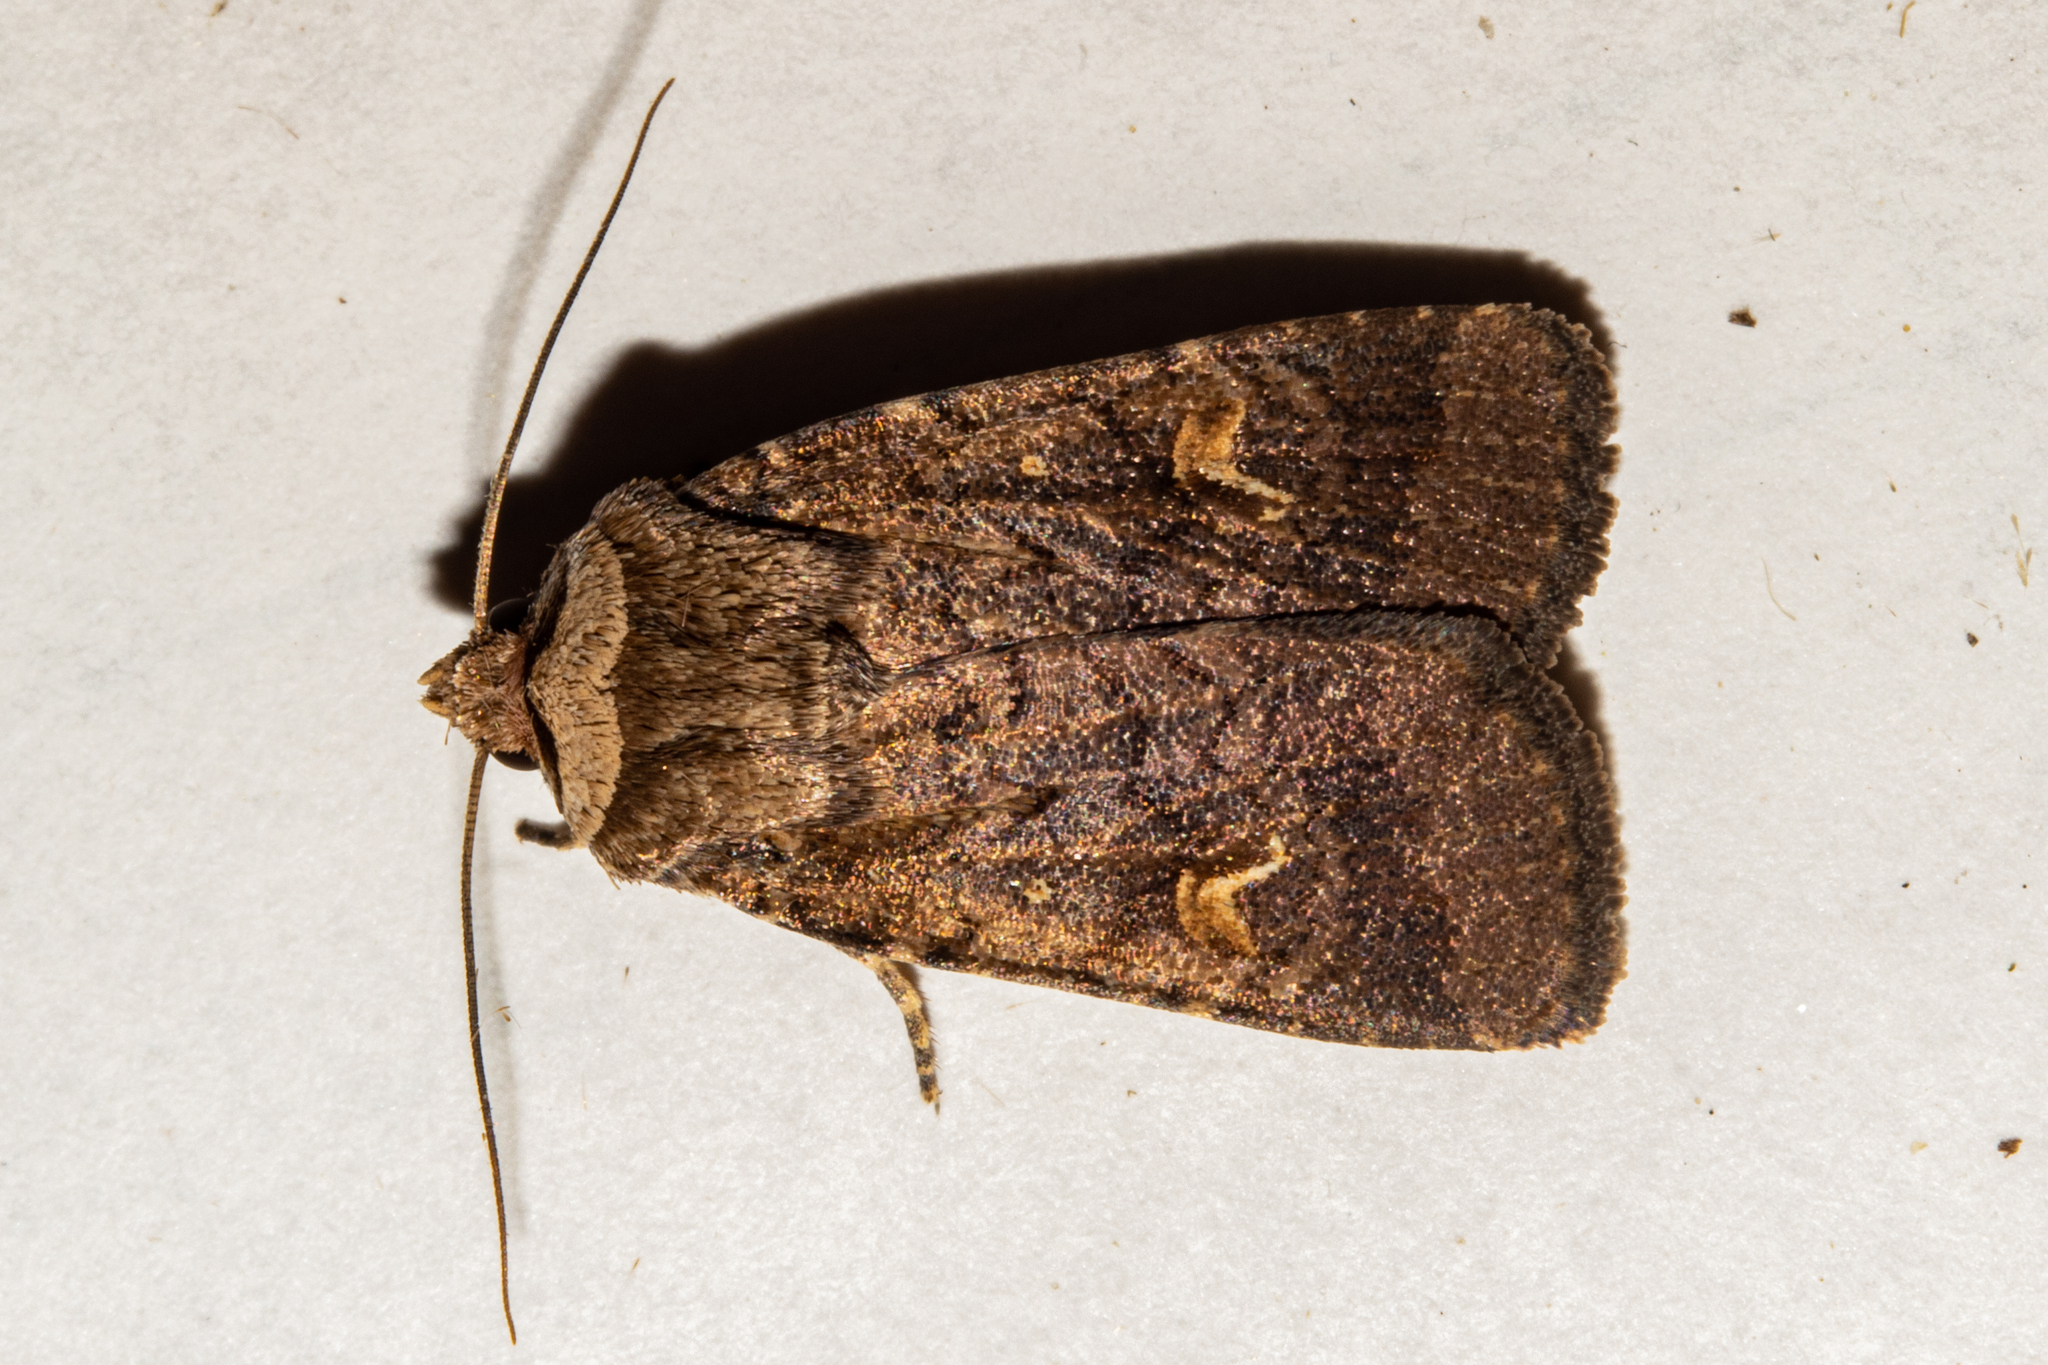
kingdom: Animalia
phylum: Arthropoda
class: Insecta
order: Lepidoptera
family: Noctuidae
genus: Proteuxoa
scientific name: Proteuxoa tetronycha
